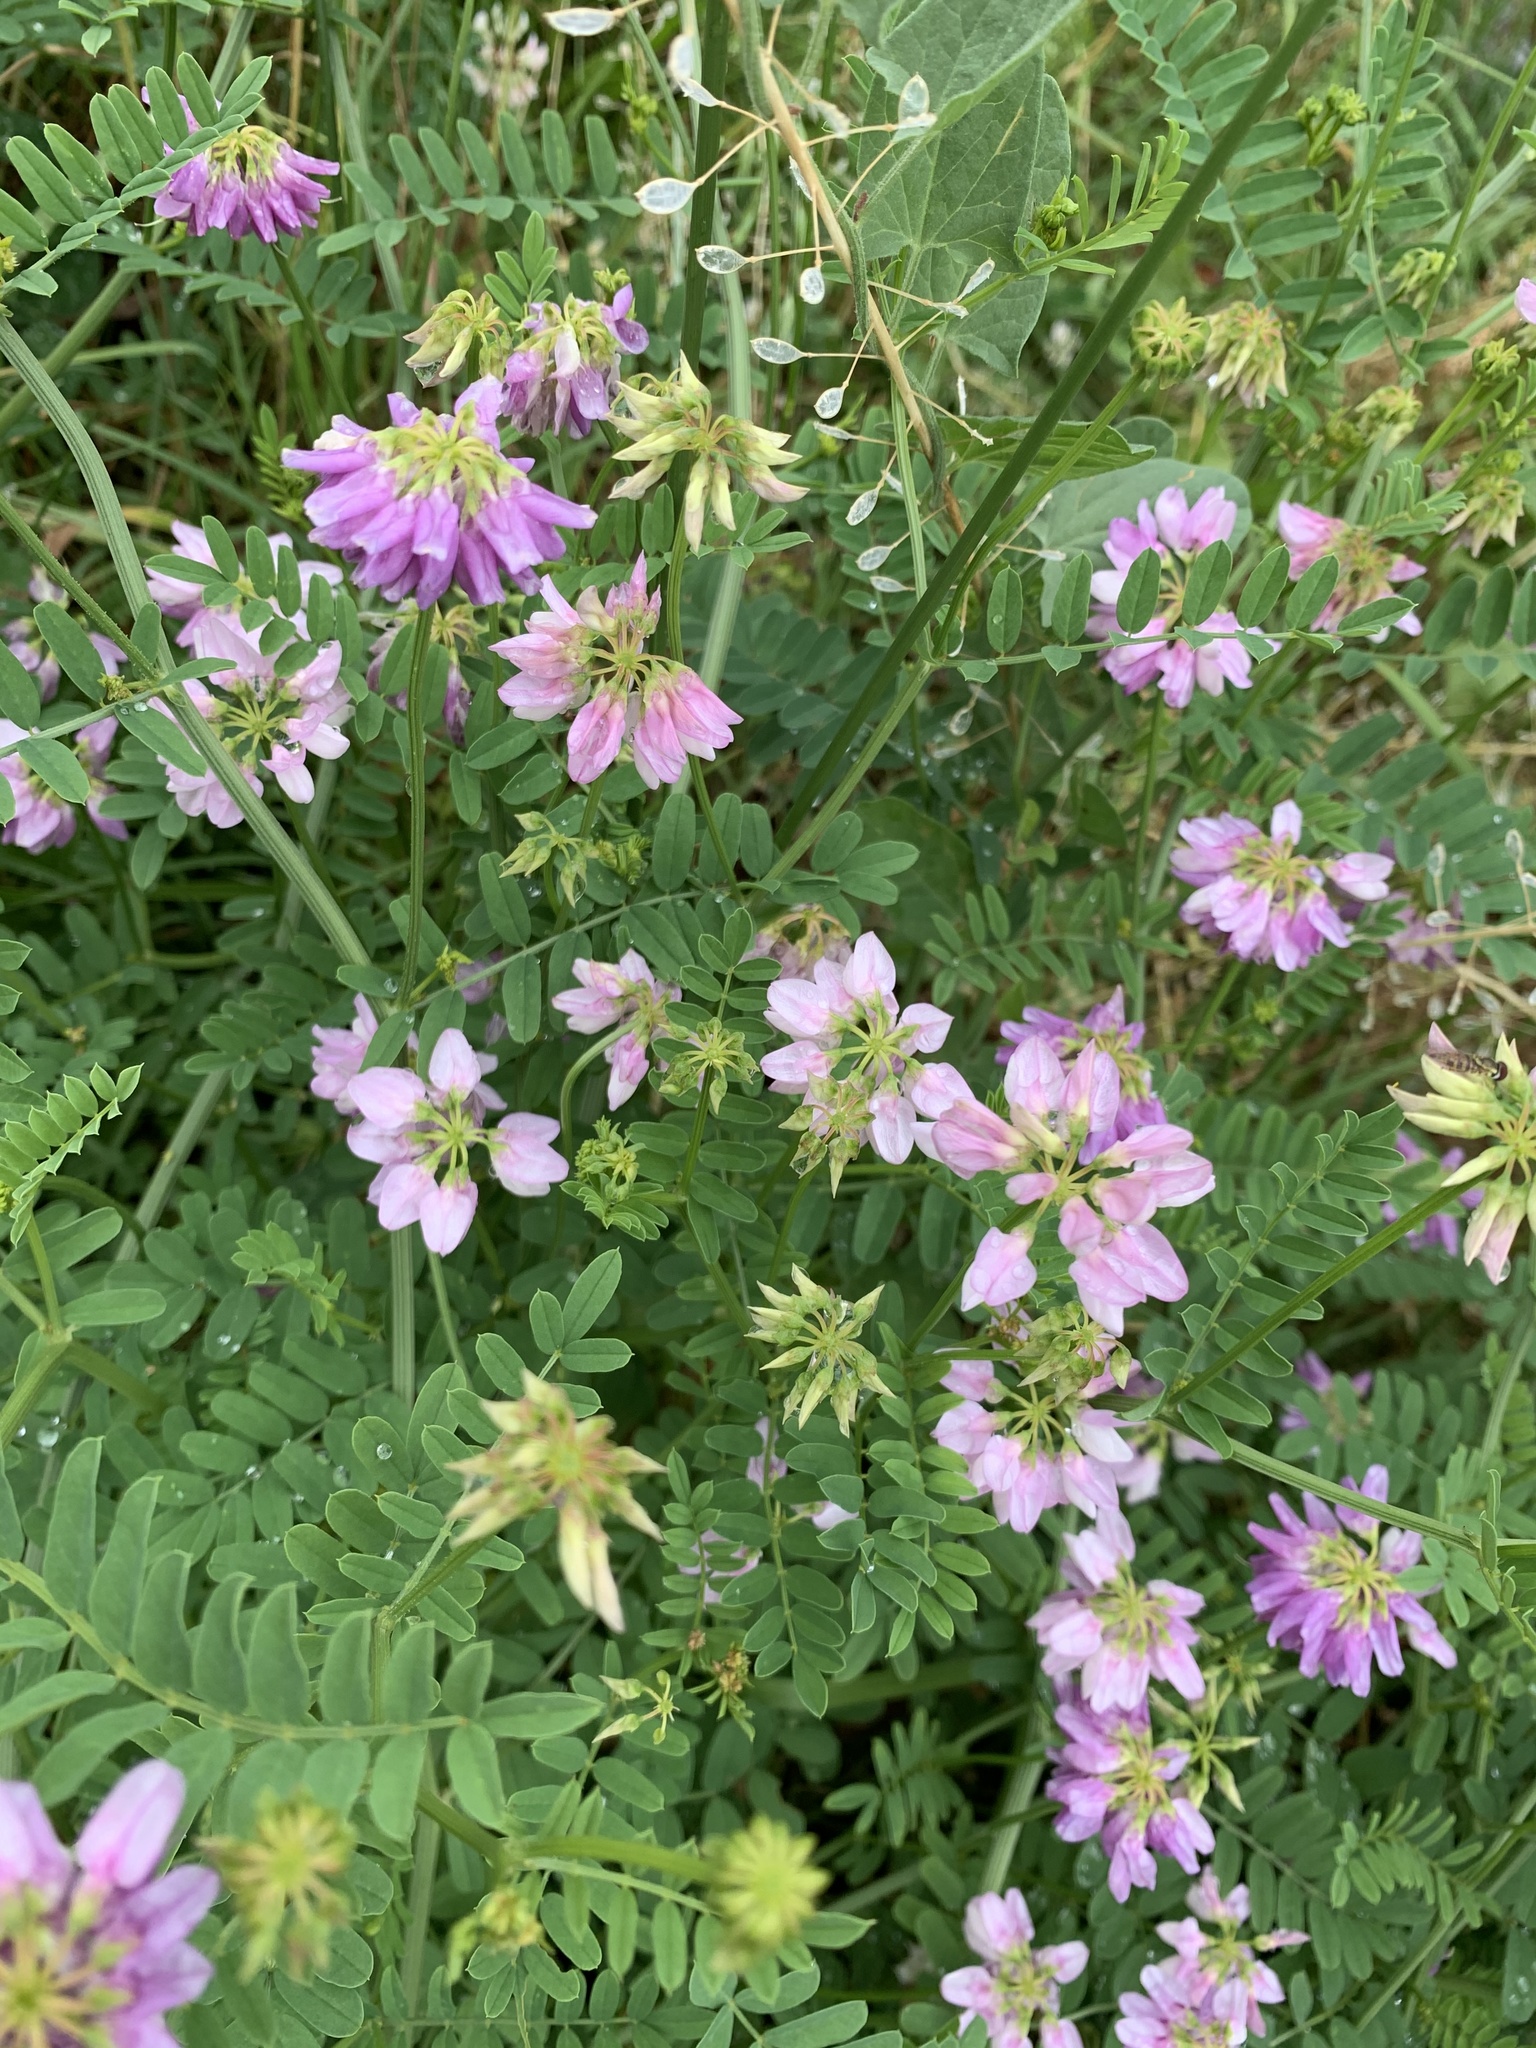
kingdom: Plantae
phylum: Tracheophyta
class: Magnoliopsida
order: Fabales
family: Fabaceae
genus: Coronilla
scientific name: Coronilla varia
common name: Crownvetch
